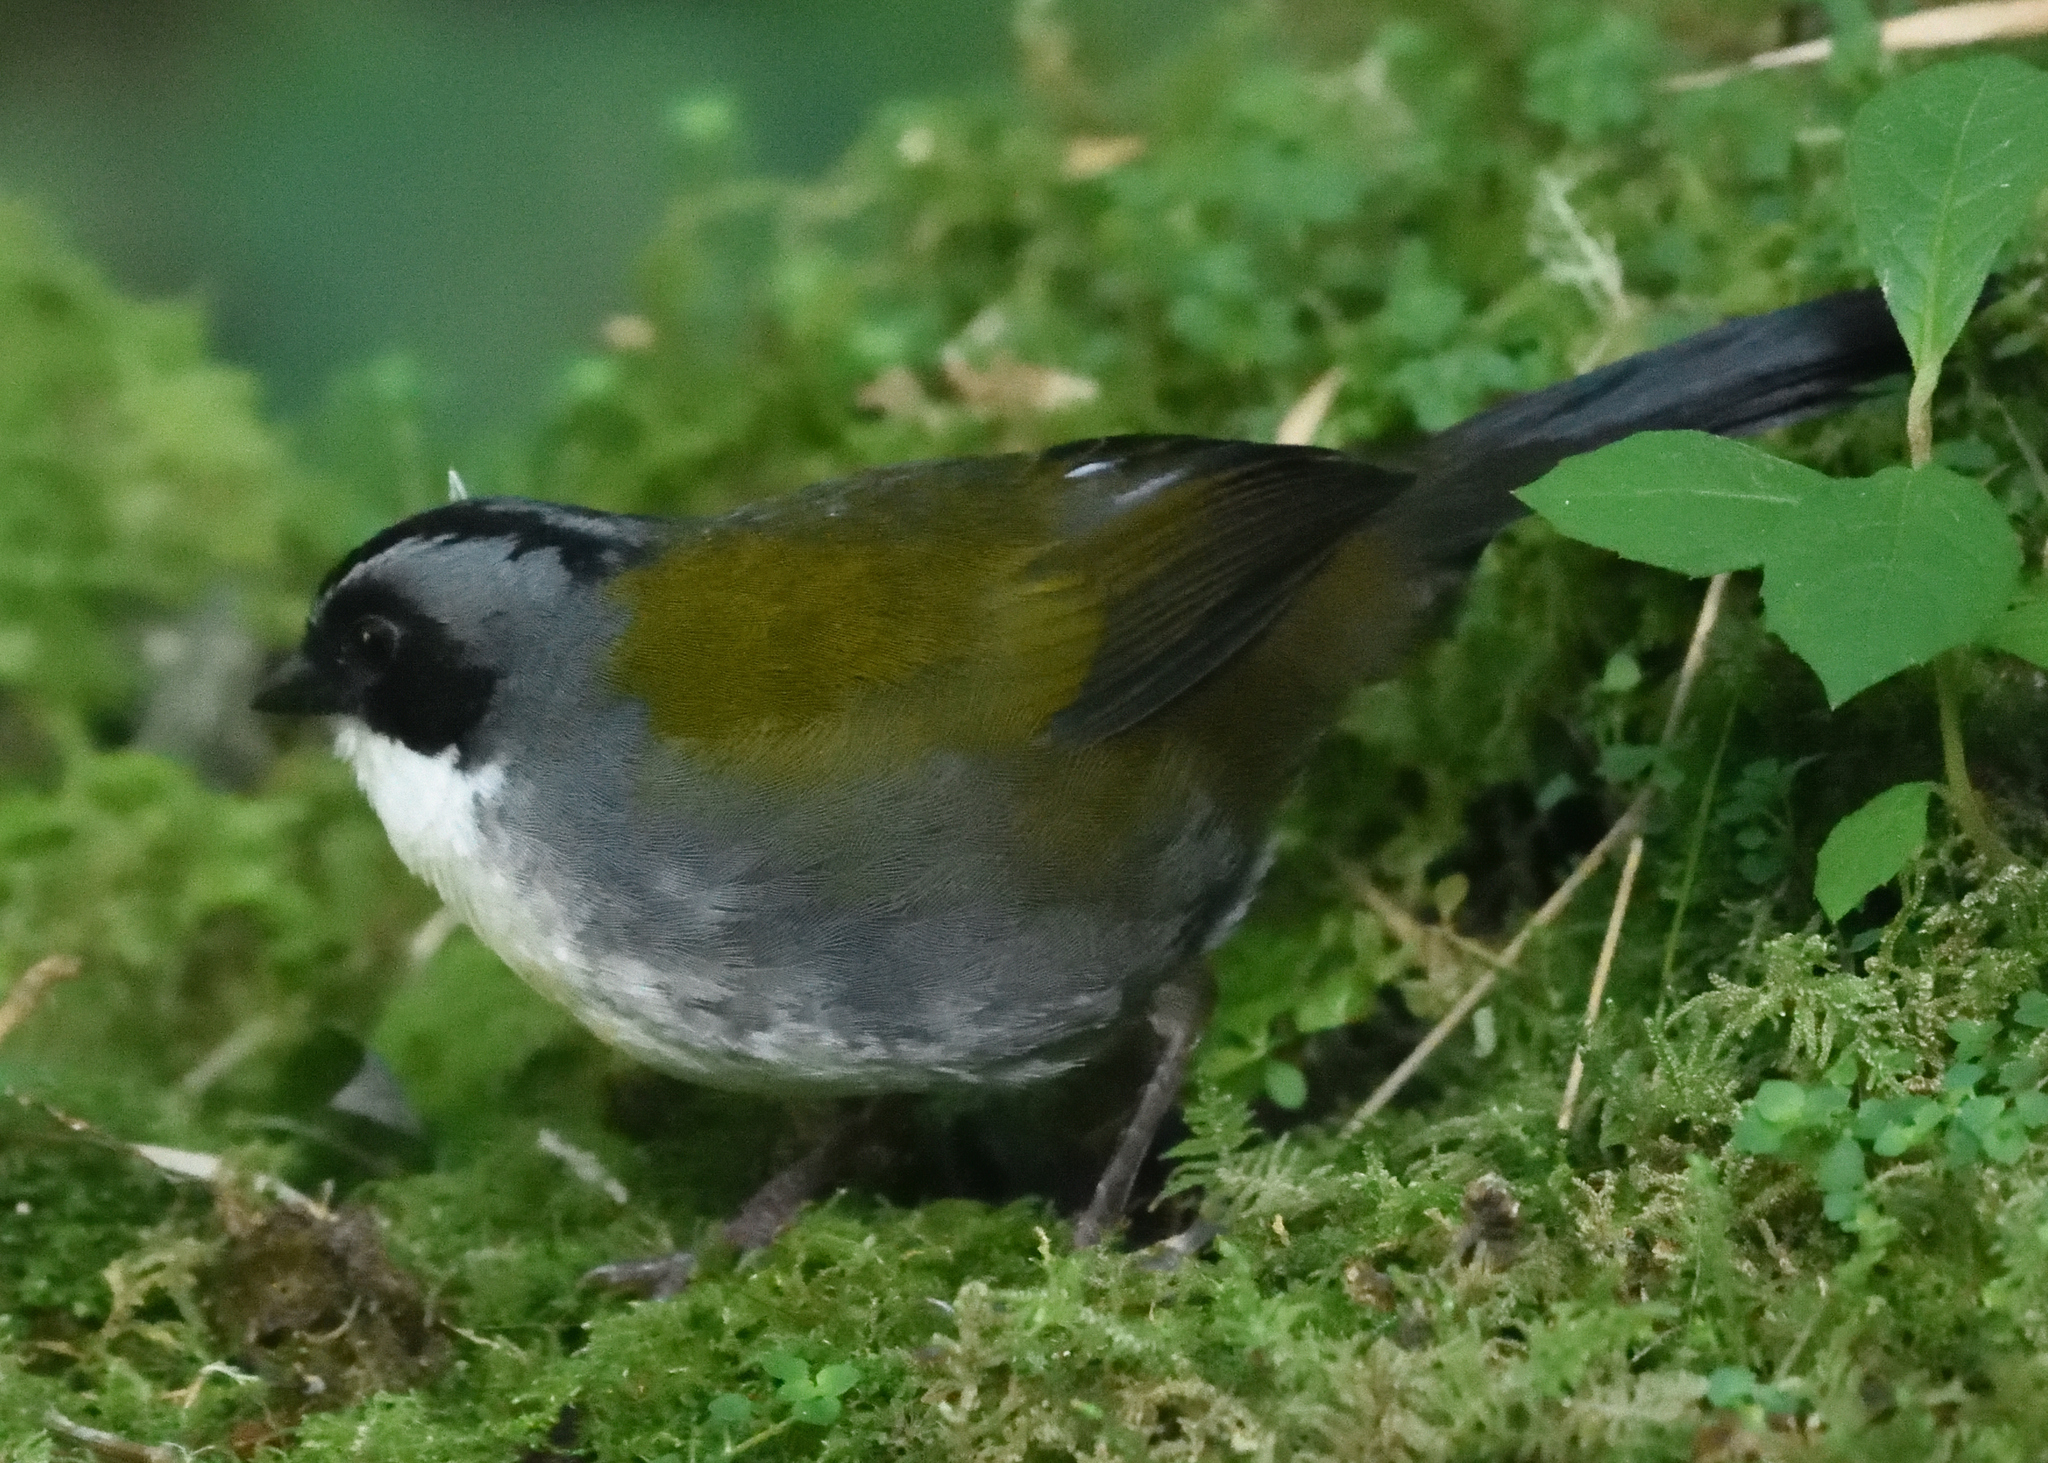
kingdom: Animalia
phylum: Chordata
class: Aves
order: Passeriformes
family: Passerellidae
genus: Arremon
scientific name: Arremon assimilis
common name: Grey-browed brushfinch
